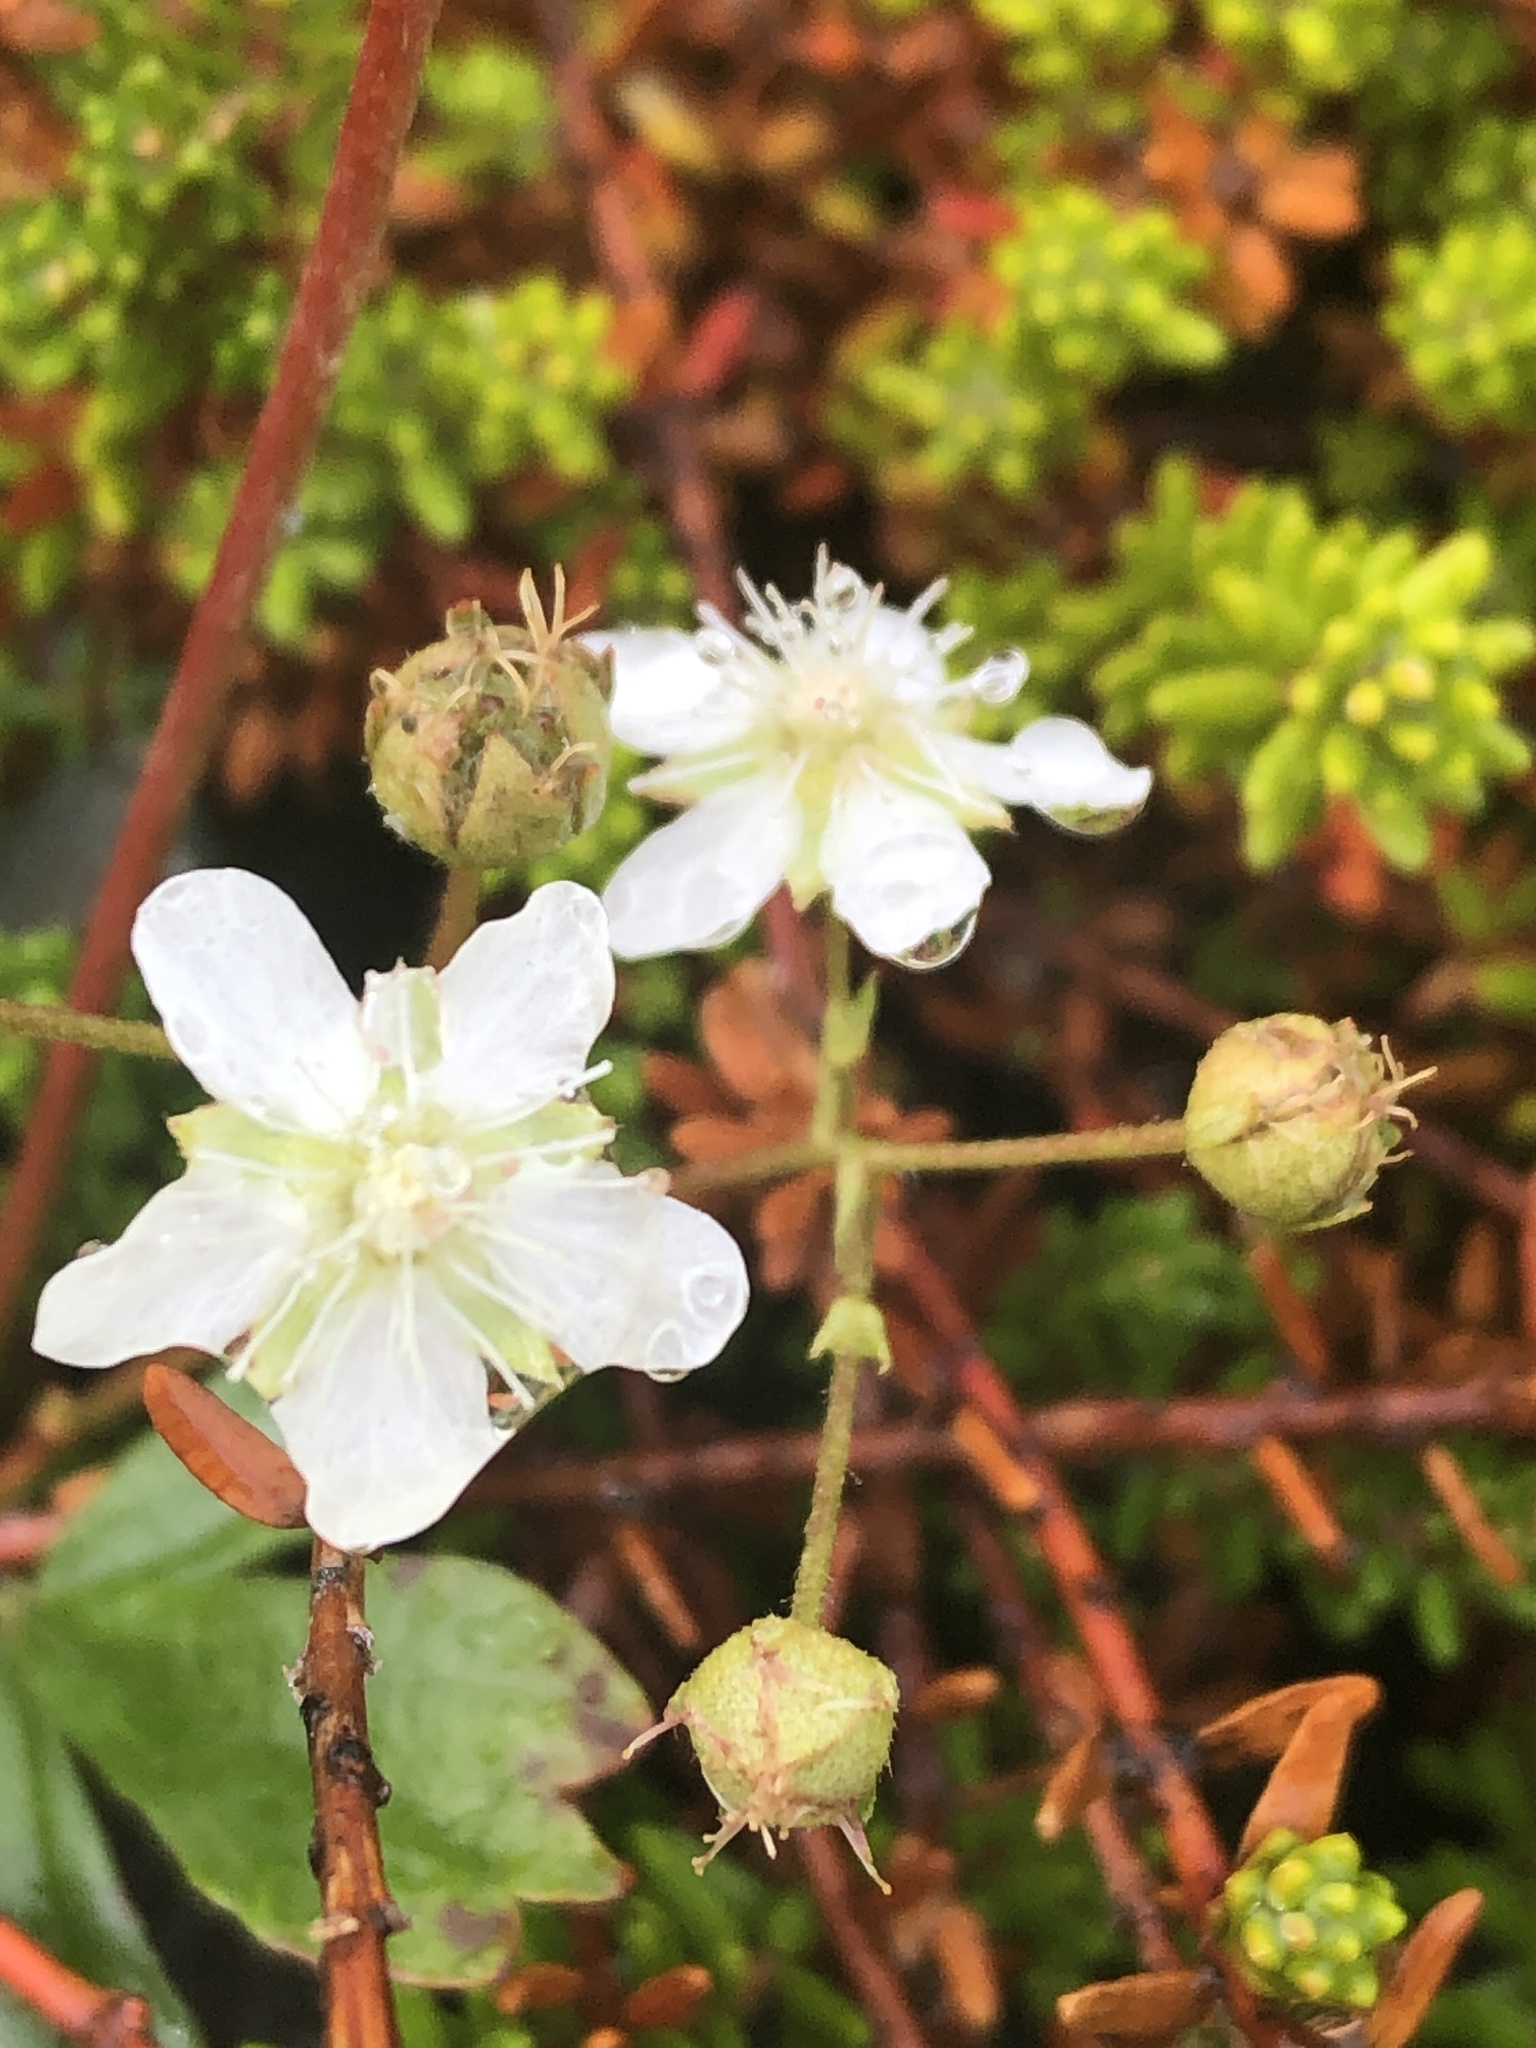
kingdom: Plantae
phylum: Tracheophyta
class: Magnoliopsida
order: Rosales
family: Rosaceae
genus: Sibbaldia
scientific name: Sibbaldia tridentata
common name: Three-toothed cinquefoil
